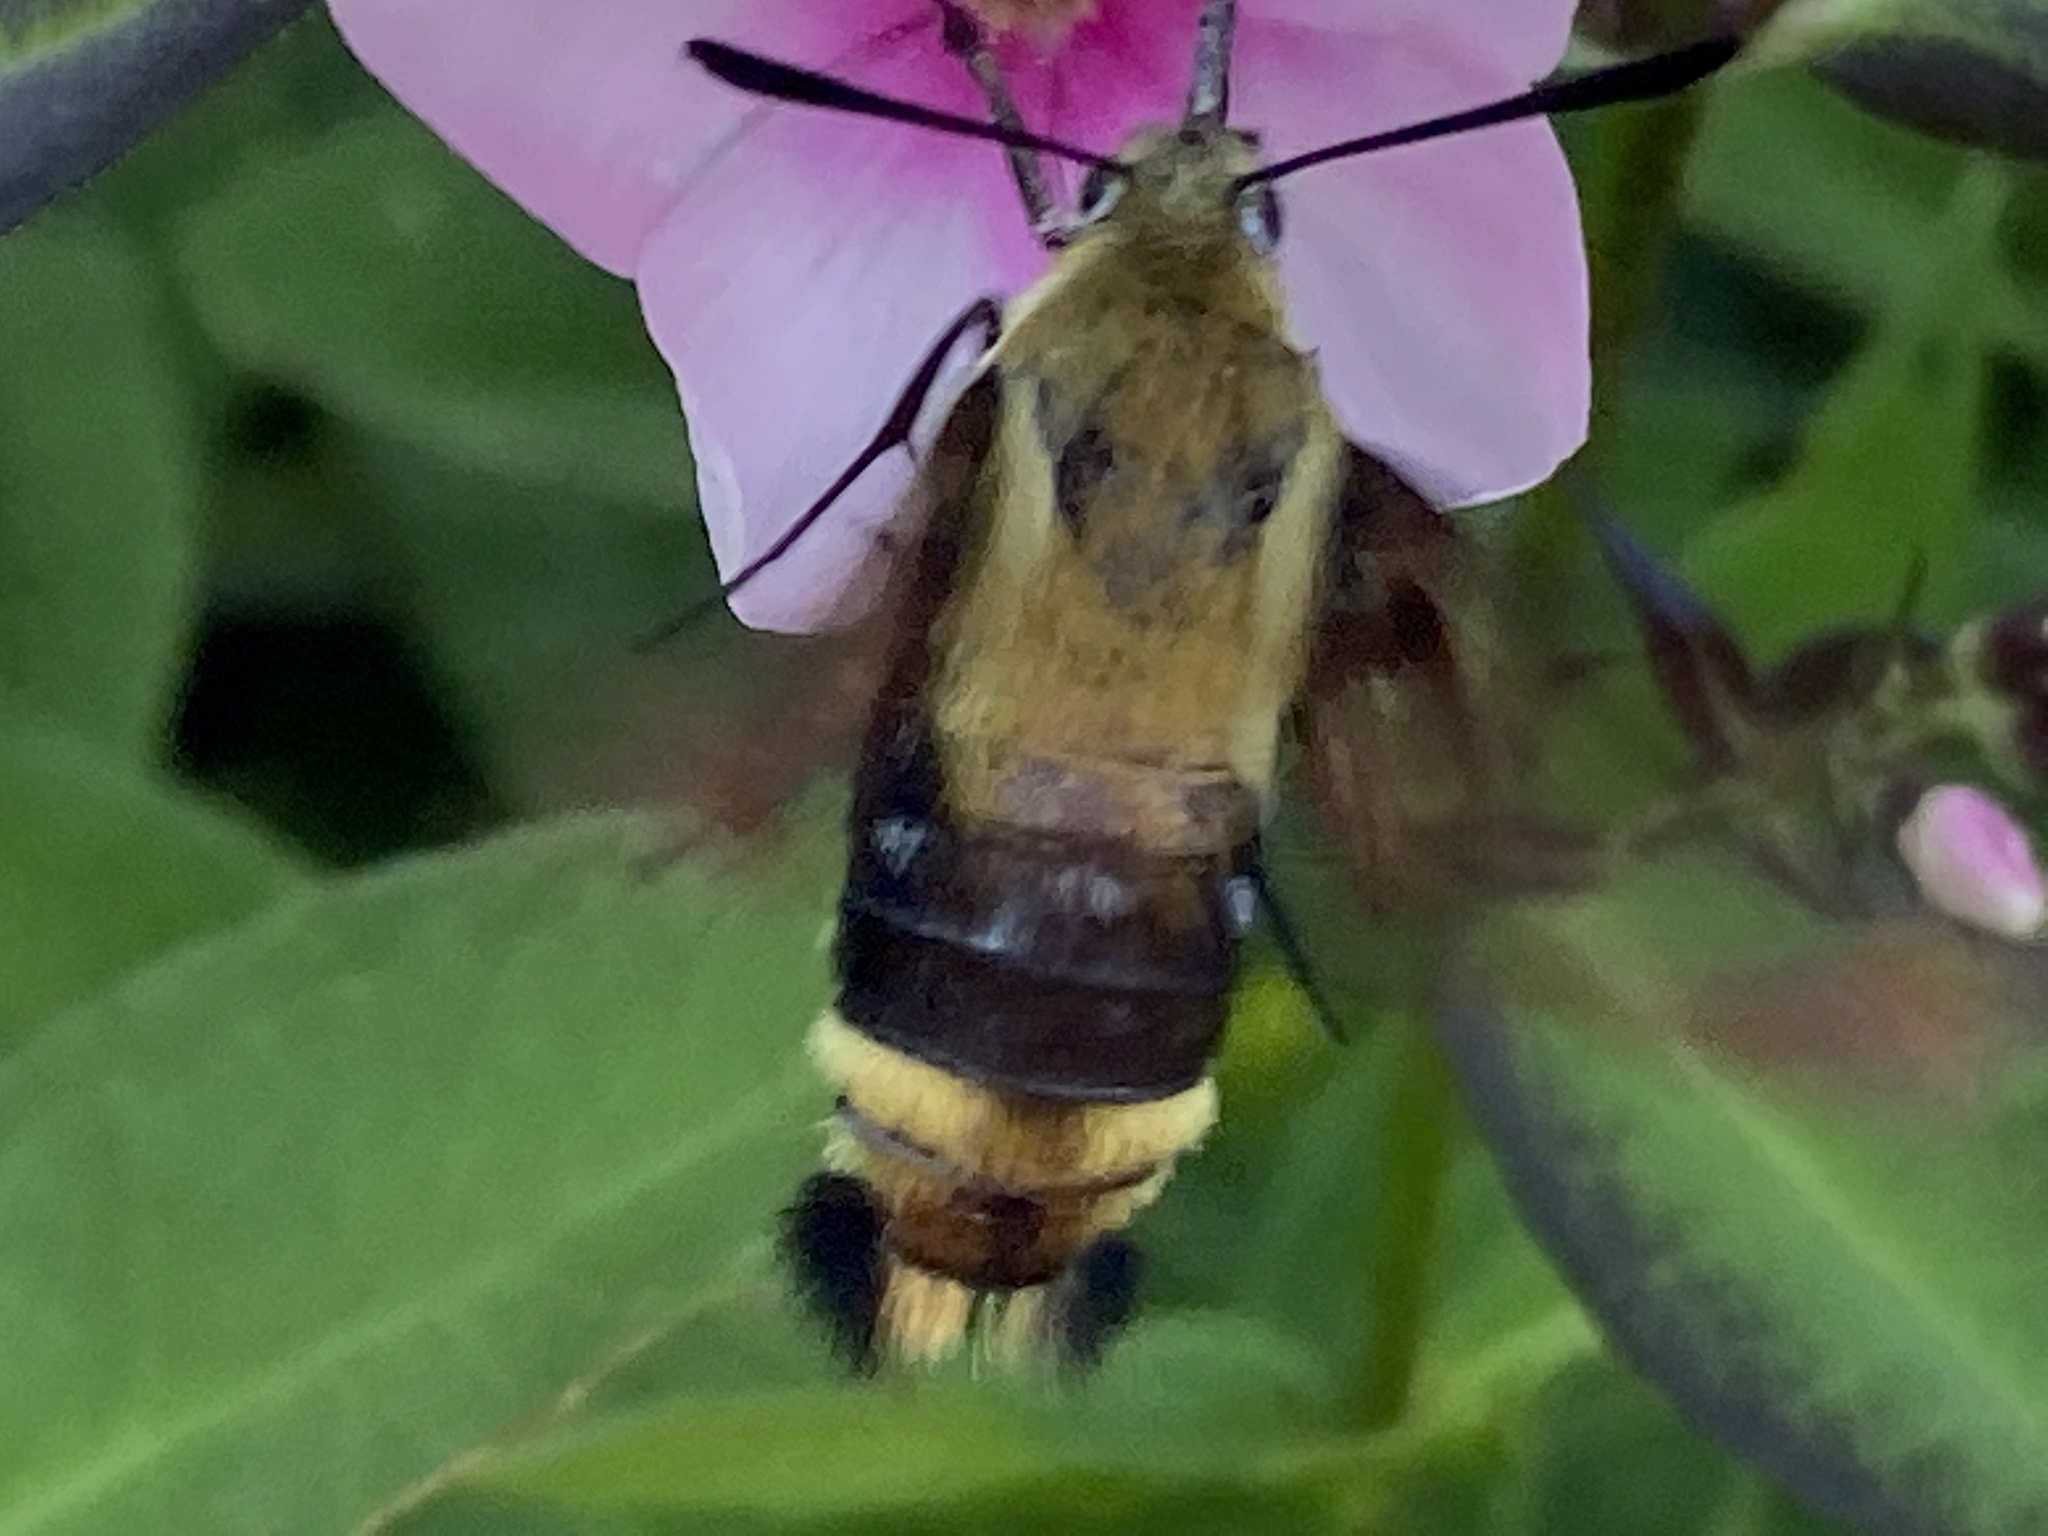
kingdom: Animalia
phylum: Arthropoda
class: Insecta
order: Lepidoptera
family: Sphingidae
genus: Hemaris
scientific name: Hemaris diffinis
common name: Bumblebee moth
